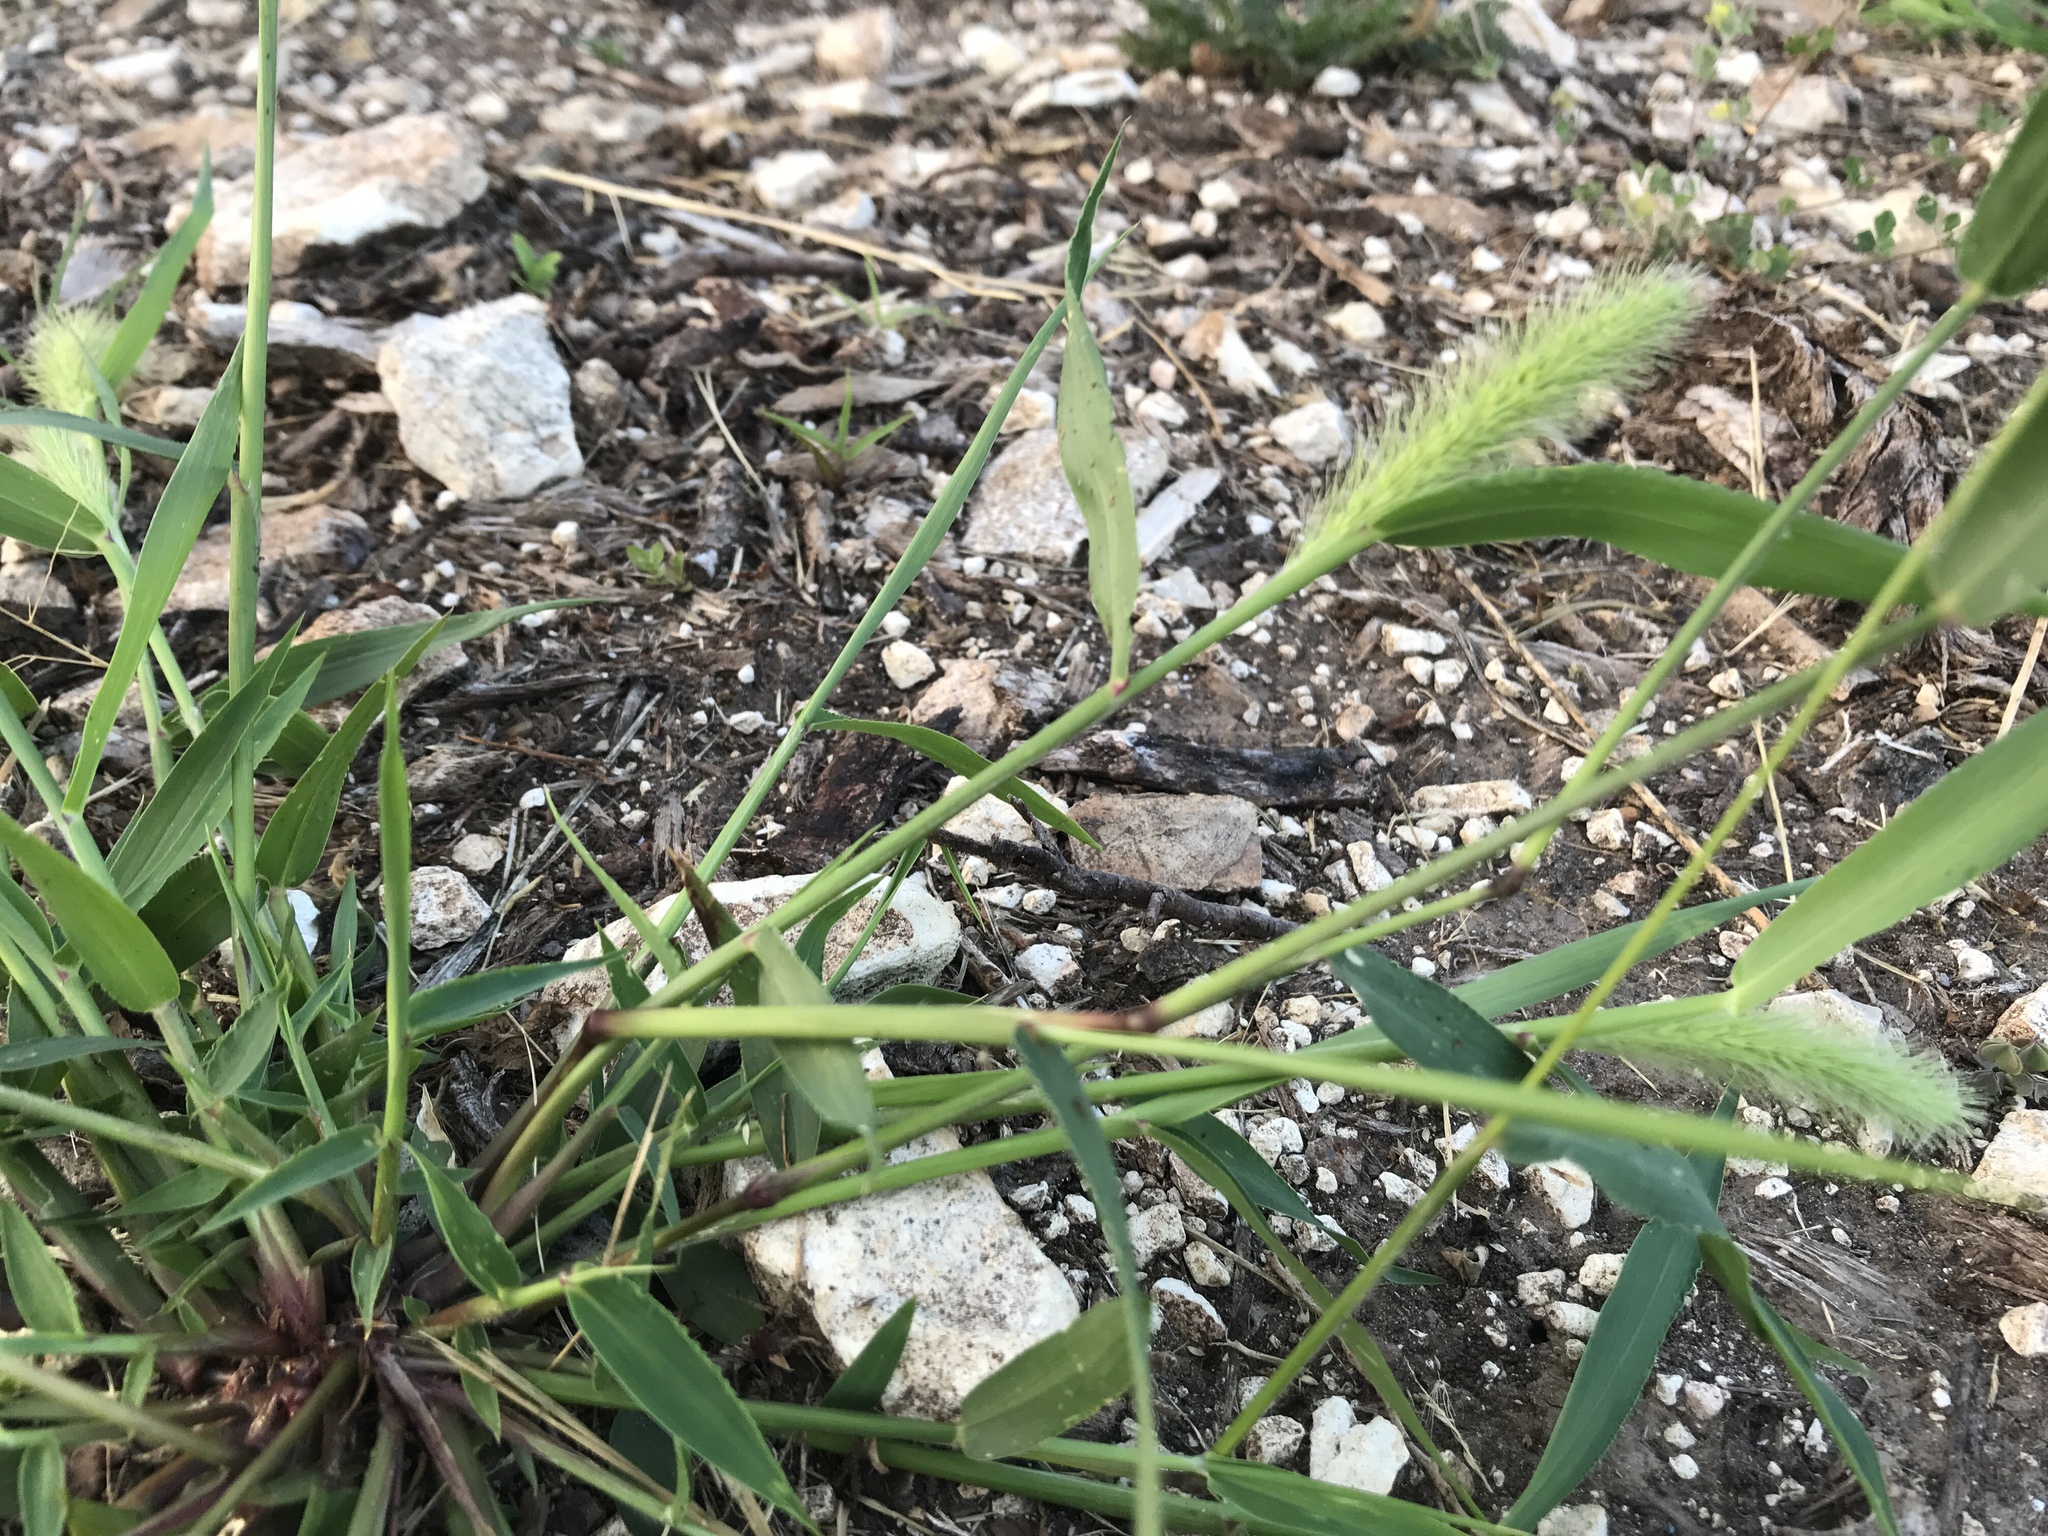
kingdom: Plantae
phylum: Tracheophyta
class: Liliopsida
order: Poales
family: Poaceae
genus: Setaria
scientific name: Setaria viridis
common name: Green bristlegrass
